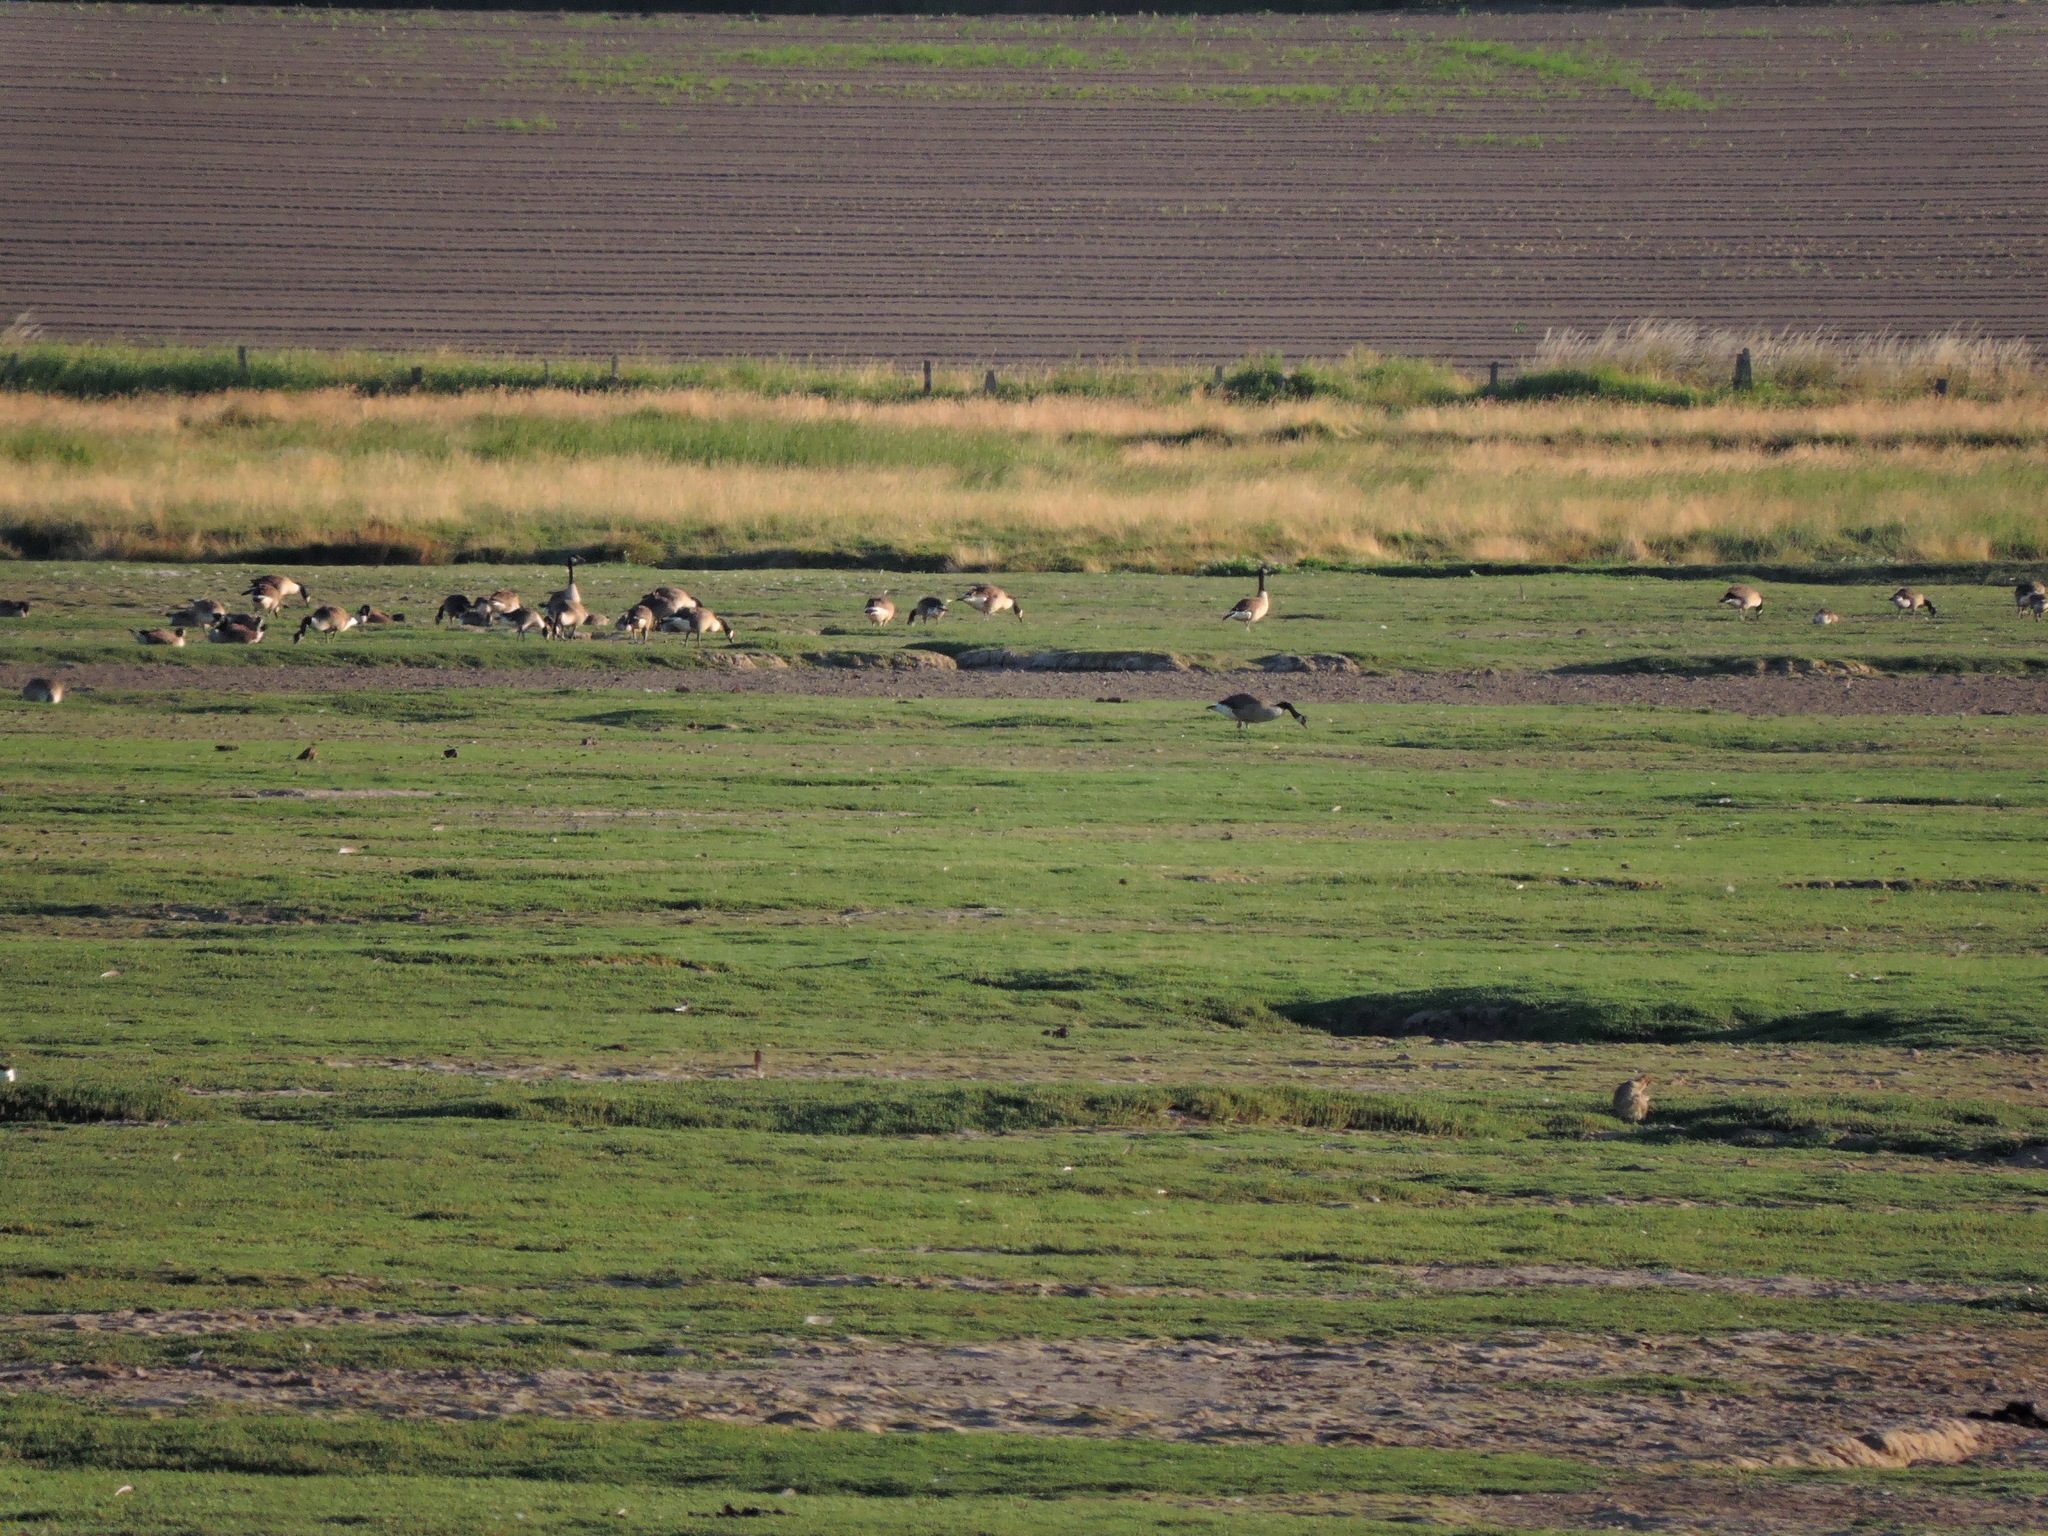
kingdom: Animalia
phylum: Chordata
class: Aves
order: Anseriformes
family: Anatidae
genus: Branta
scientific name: Branta canadensis
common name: Canada goose
